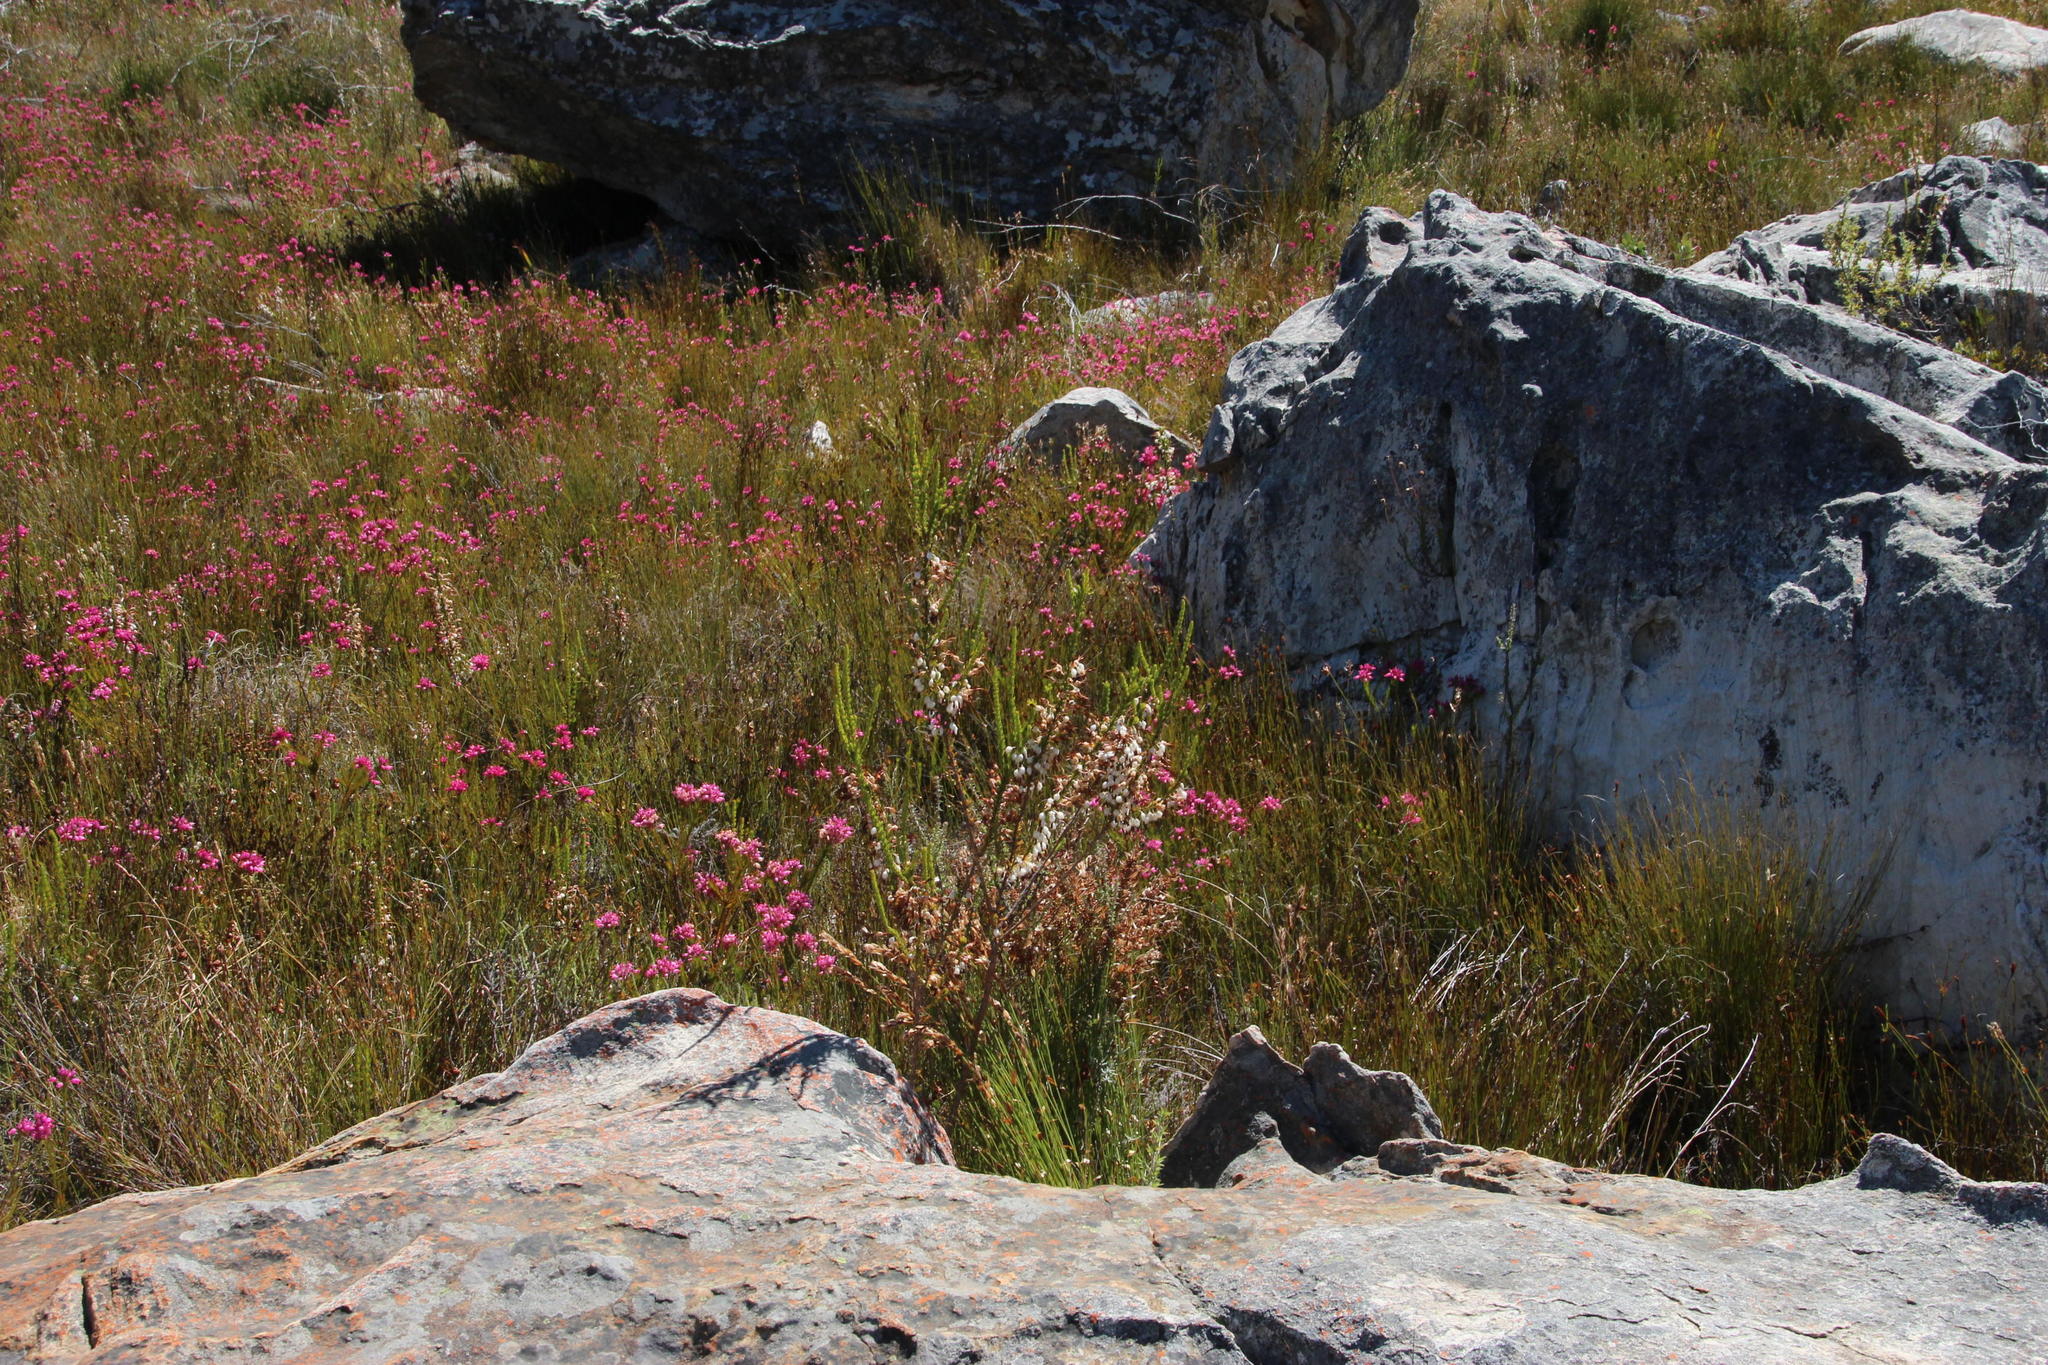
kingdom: Plantae
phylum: Tracheophyta
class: Magnoliopsida
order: Ericales
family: Ericaceae
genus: Erica
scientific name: Erica plukenetii
